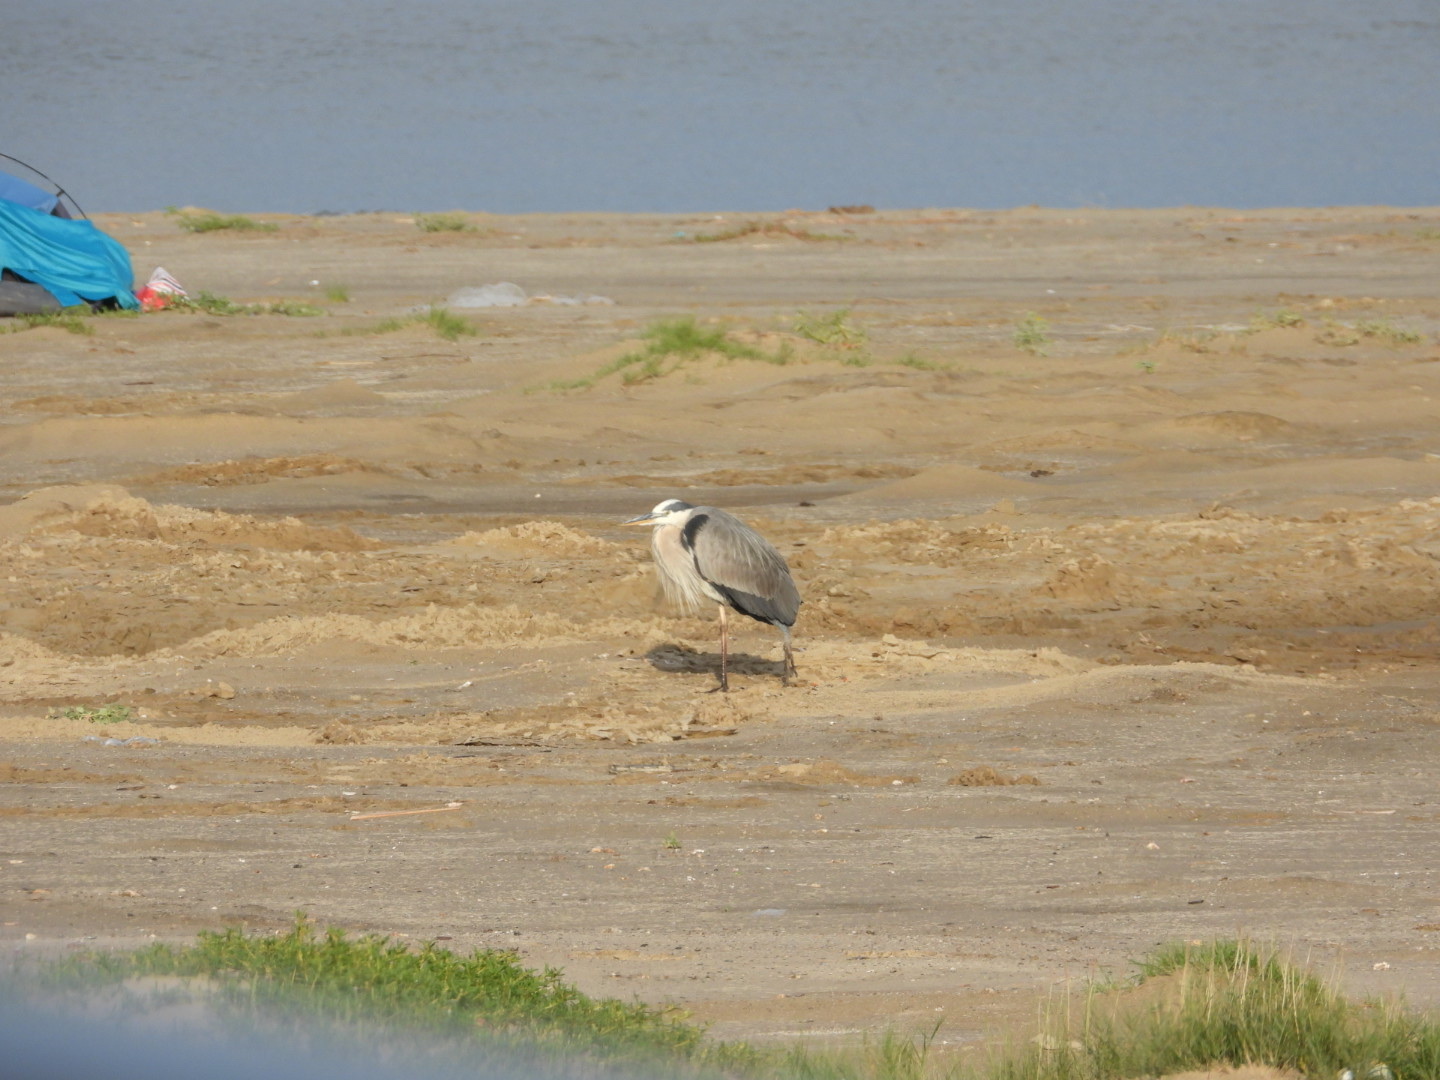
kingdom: Animalia
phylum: Chordata
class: Aves
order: Pelecaniformes
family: Ardeidae
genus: Ardea
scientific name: Ardea herodias
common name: Great blue heron
